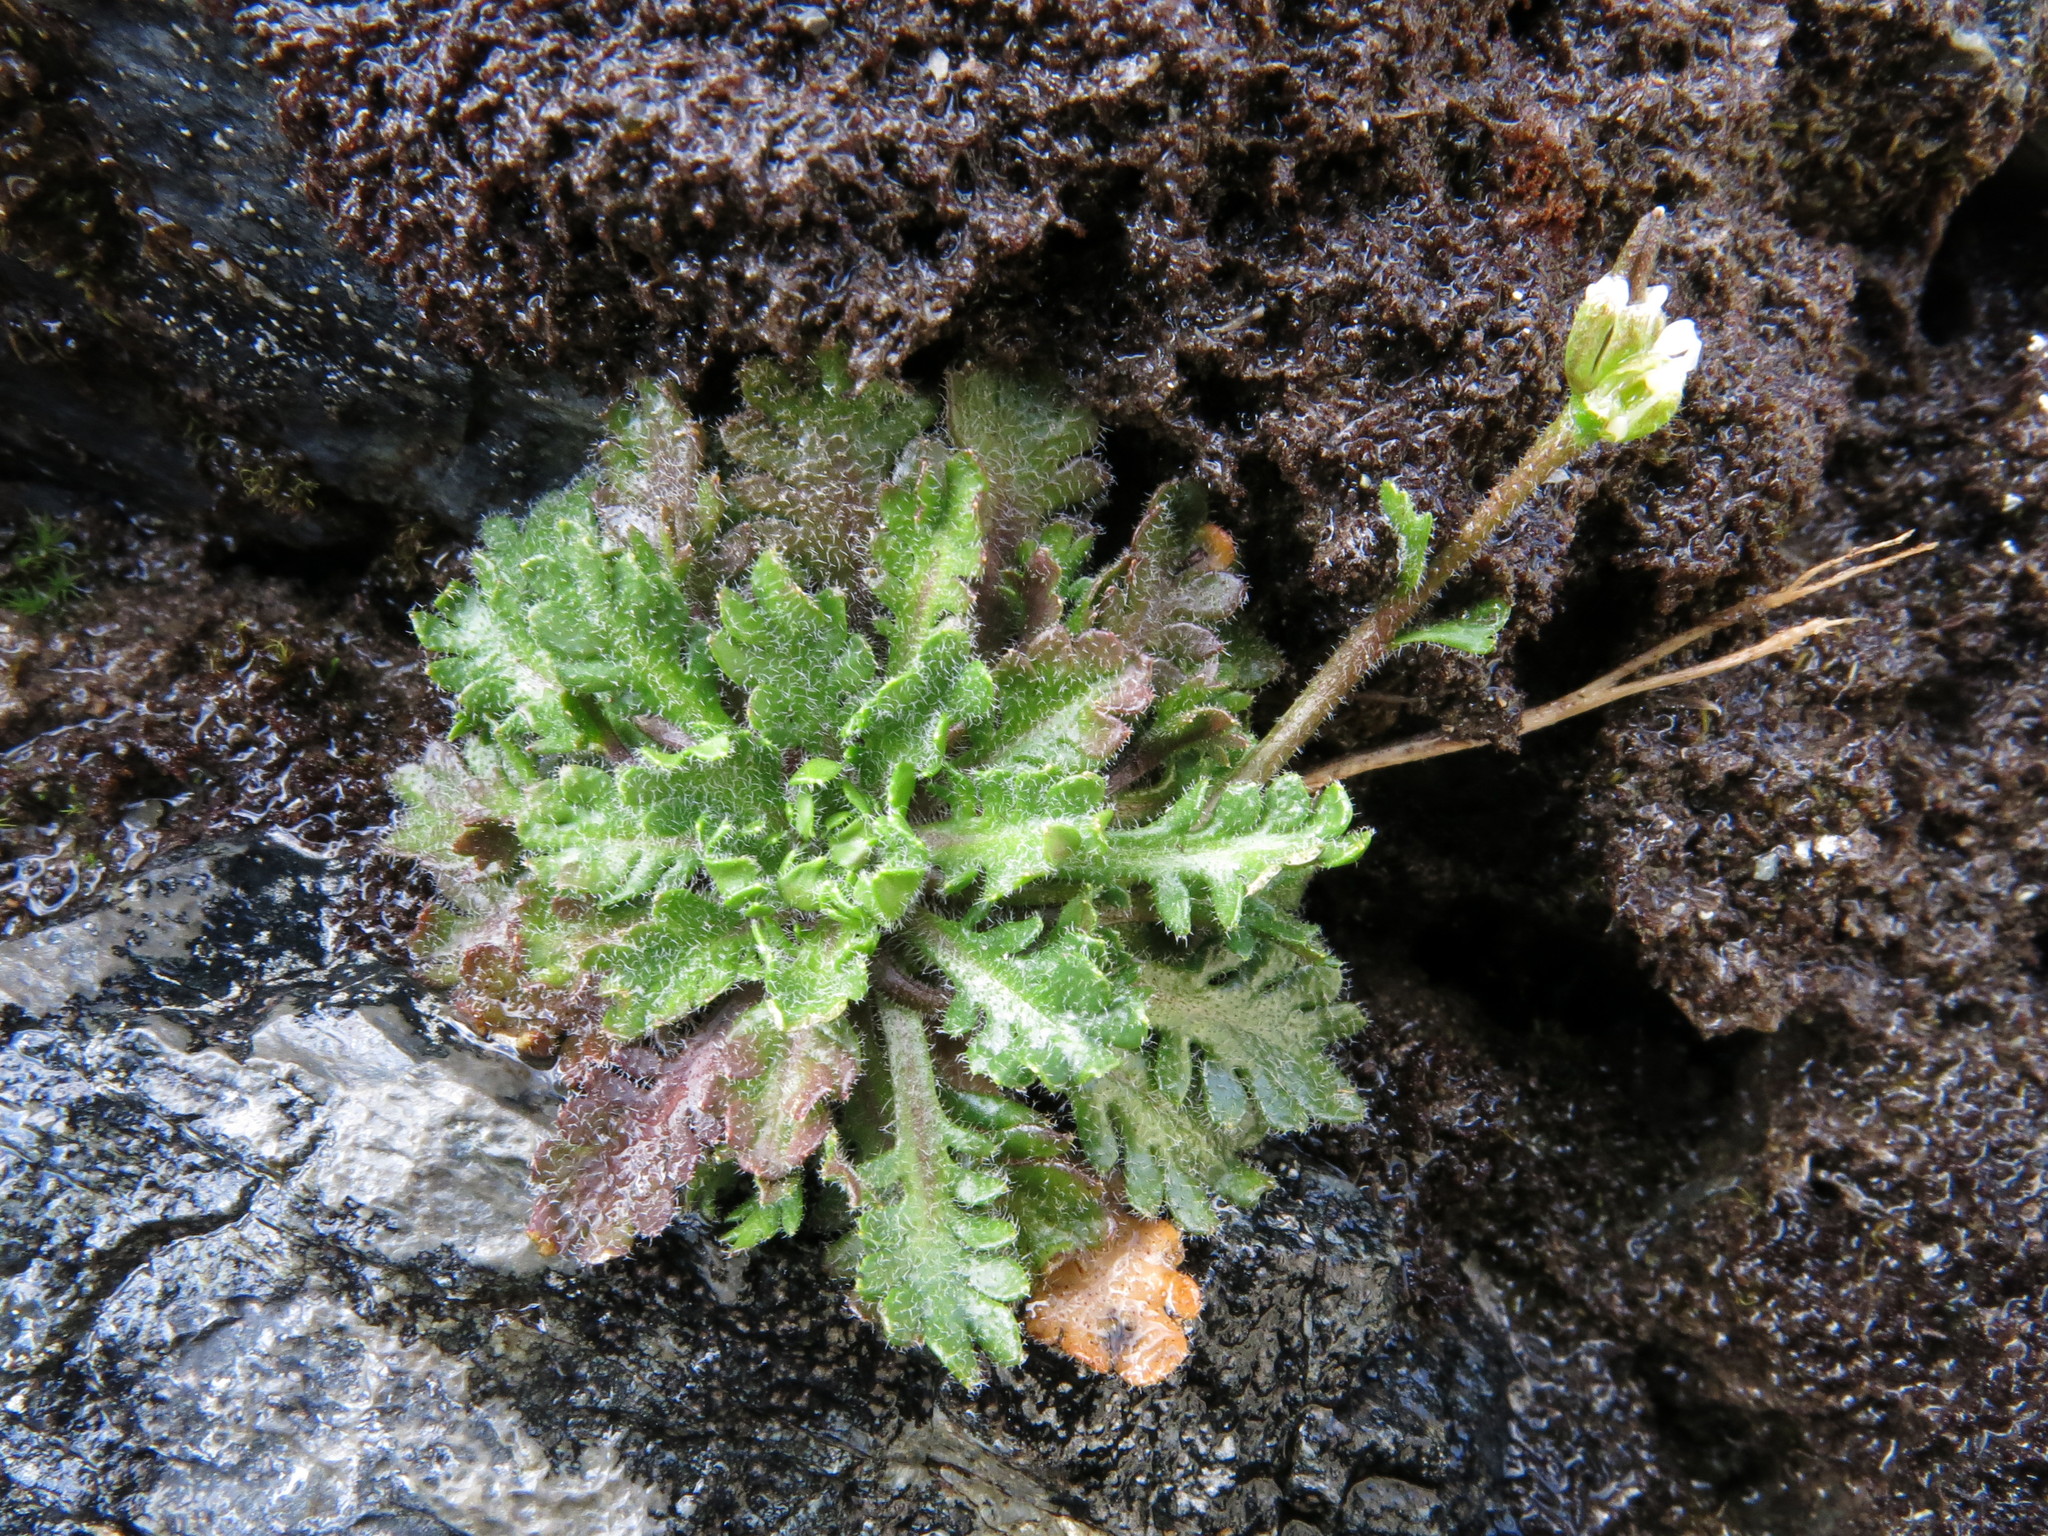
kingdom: Plantae
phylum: Tracheophyta
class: Magnoliopsida
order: Brassicales
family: Brassicaceae
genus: Pachycladon
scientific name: Pachycladon novae-zelandiae
